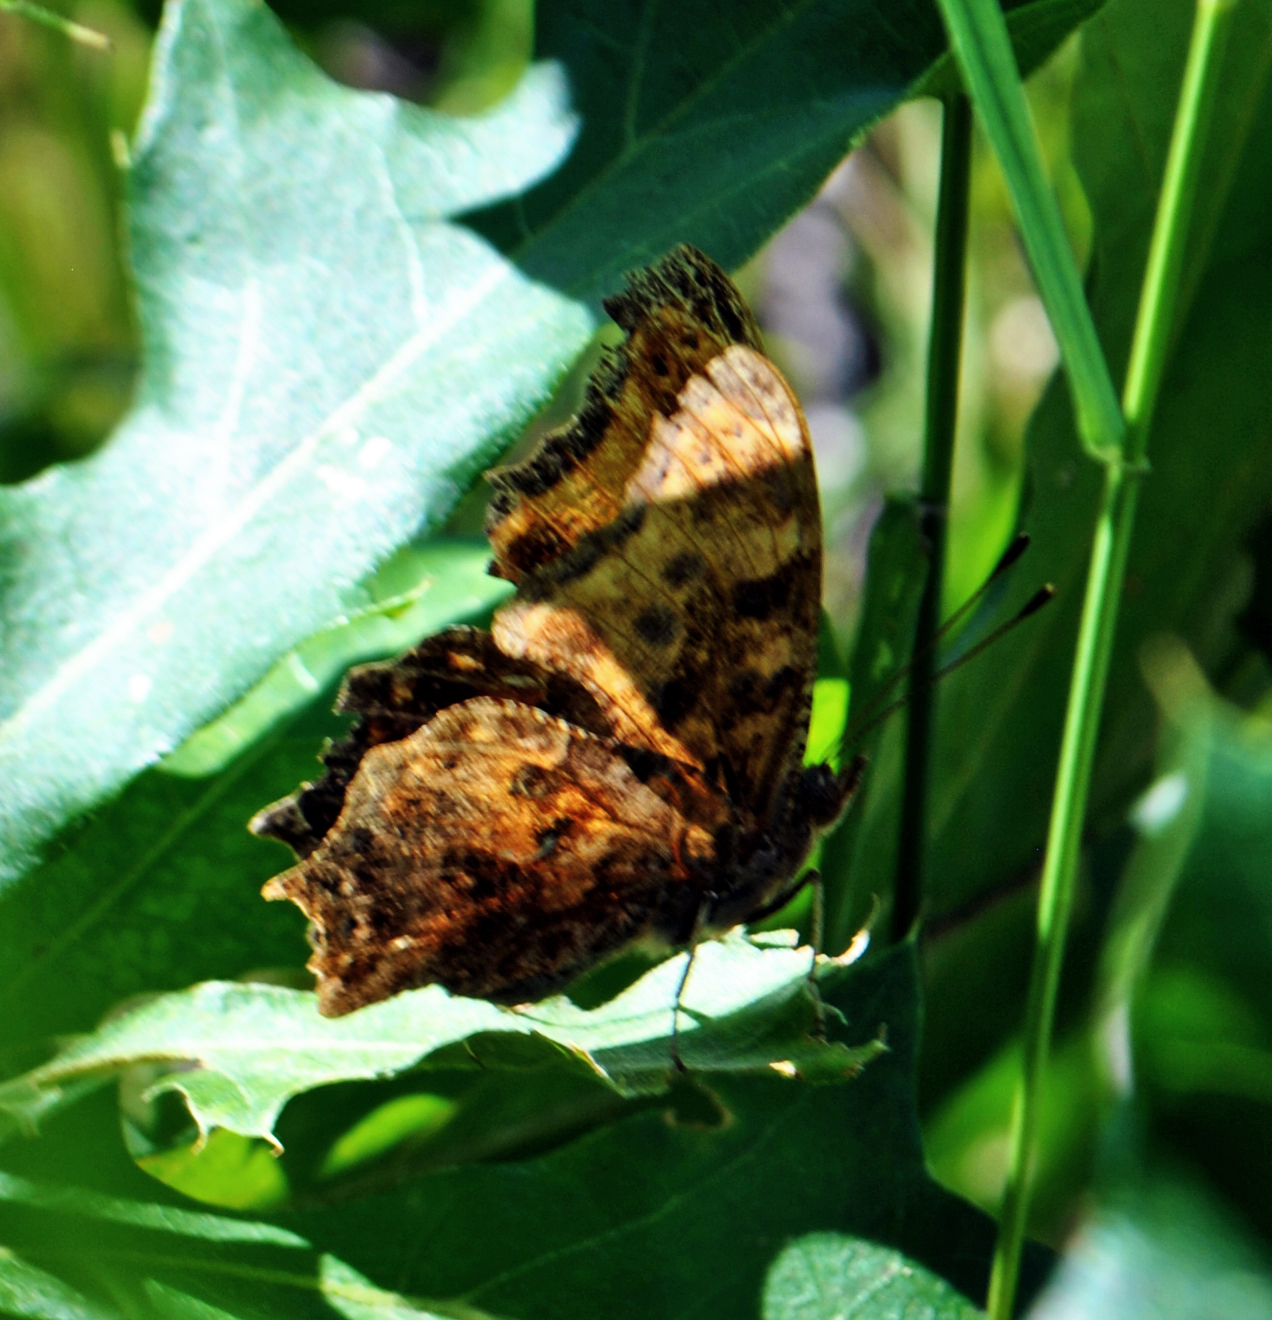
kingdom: Animalia
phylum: Arthropoda
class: Insecta
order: Lepidoptera
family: Nymphalidae
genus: Polygonia
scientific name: Polygonia comma
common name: Eastern comma
